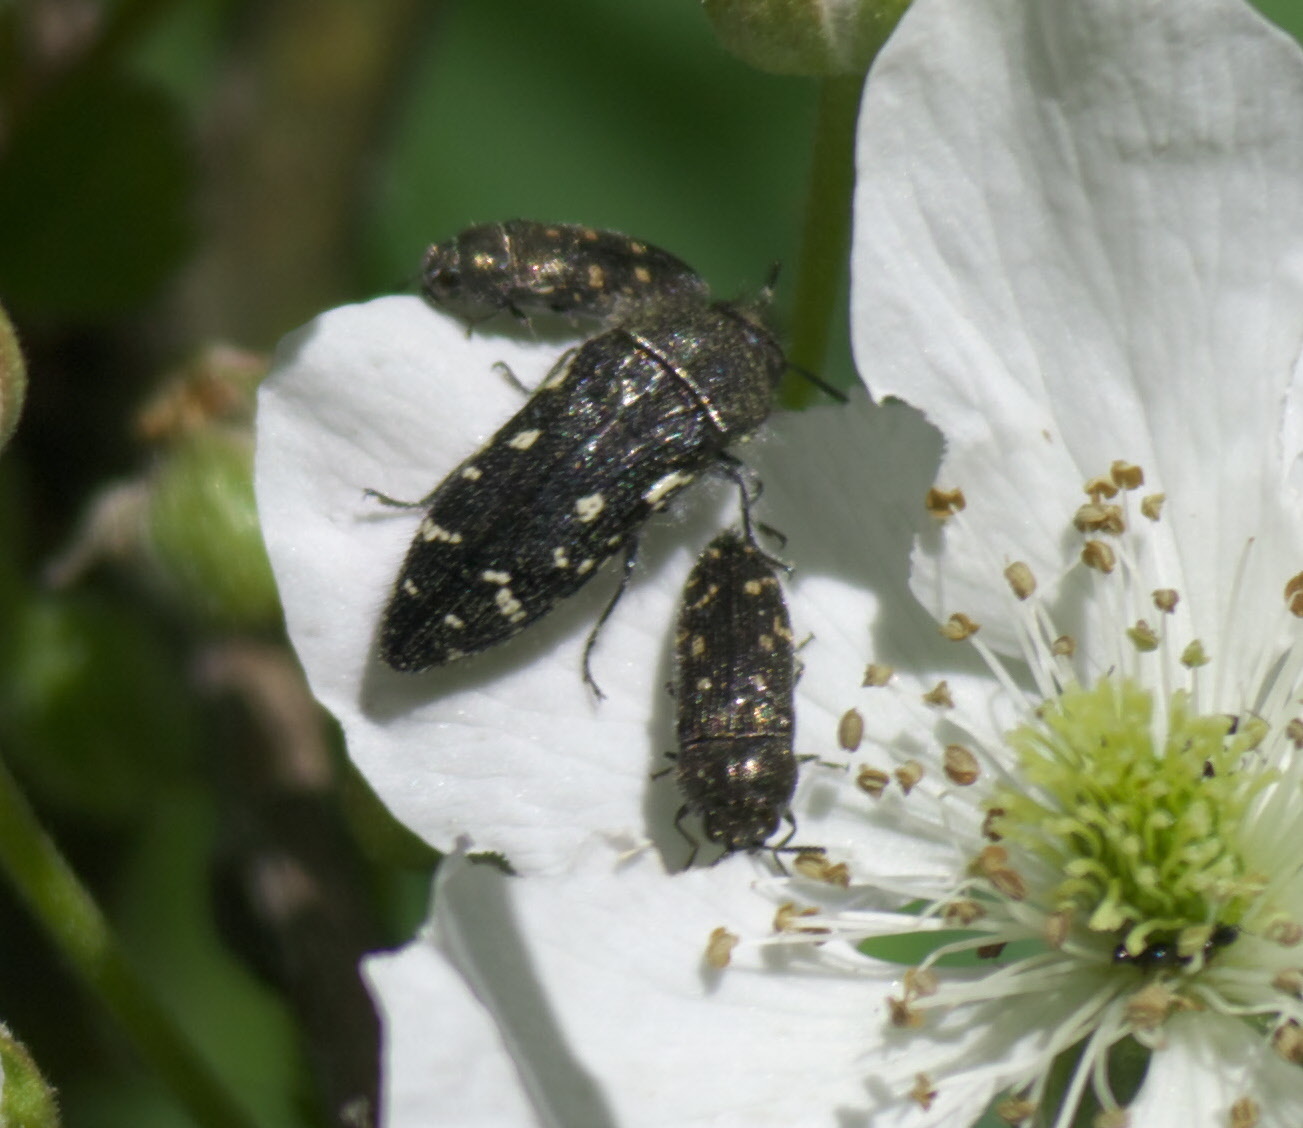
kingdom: Animalia
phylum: Arthropoda
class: Insecta
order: Coleoptera
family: Buprestidae
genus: Acmaeodera
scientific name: Acmaeodera ornata
